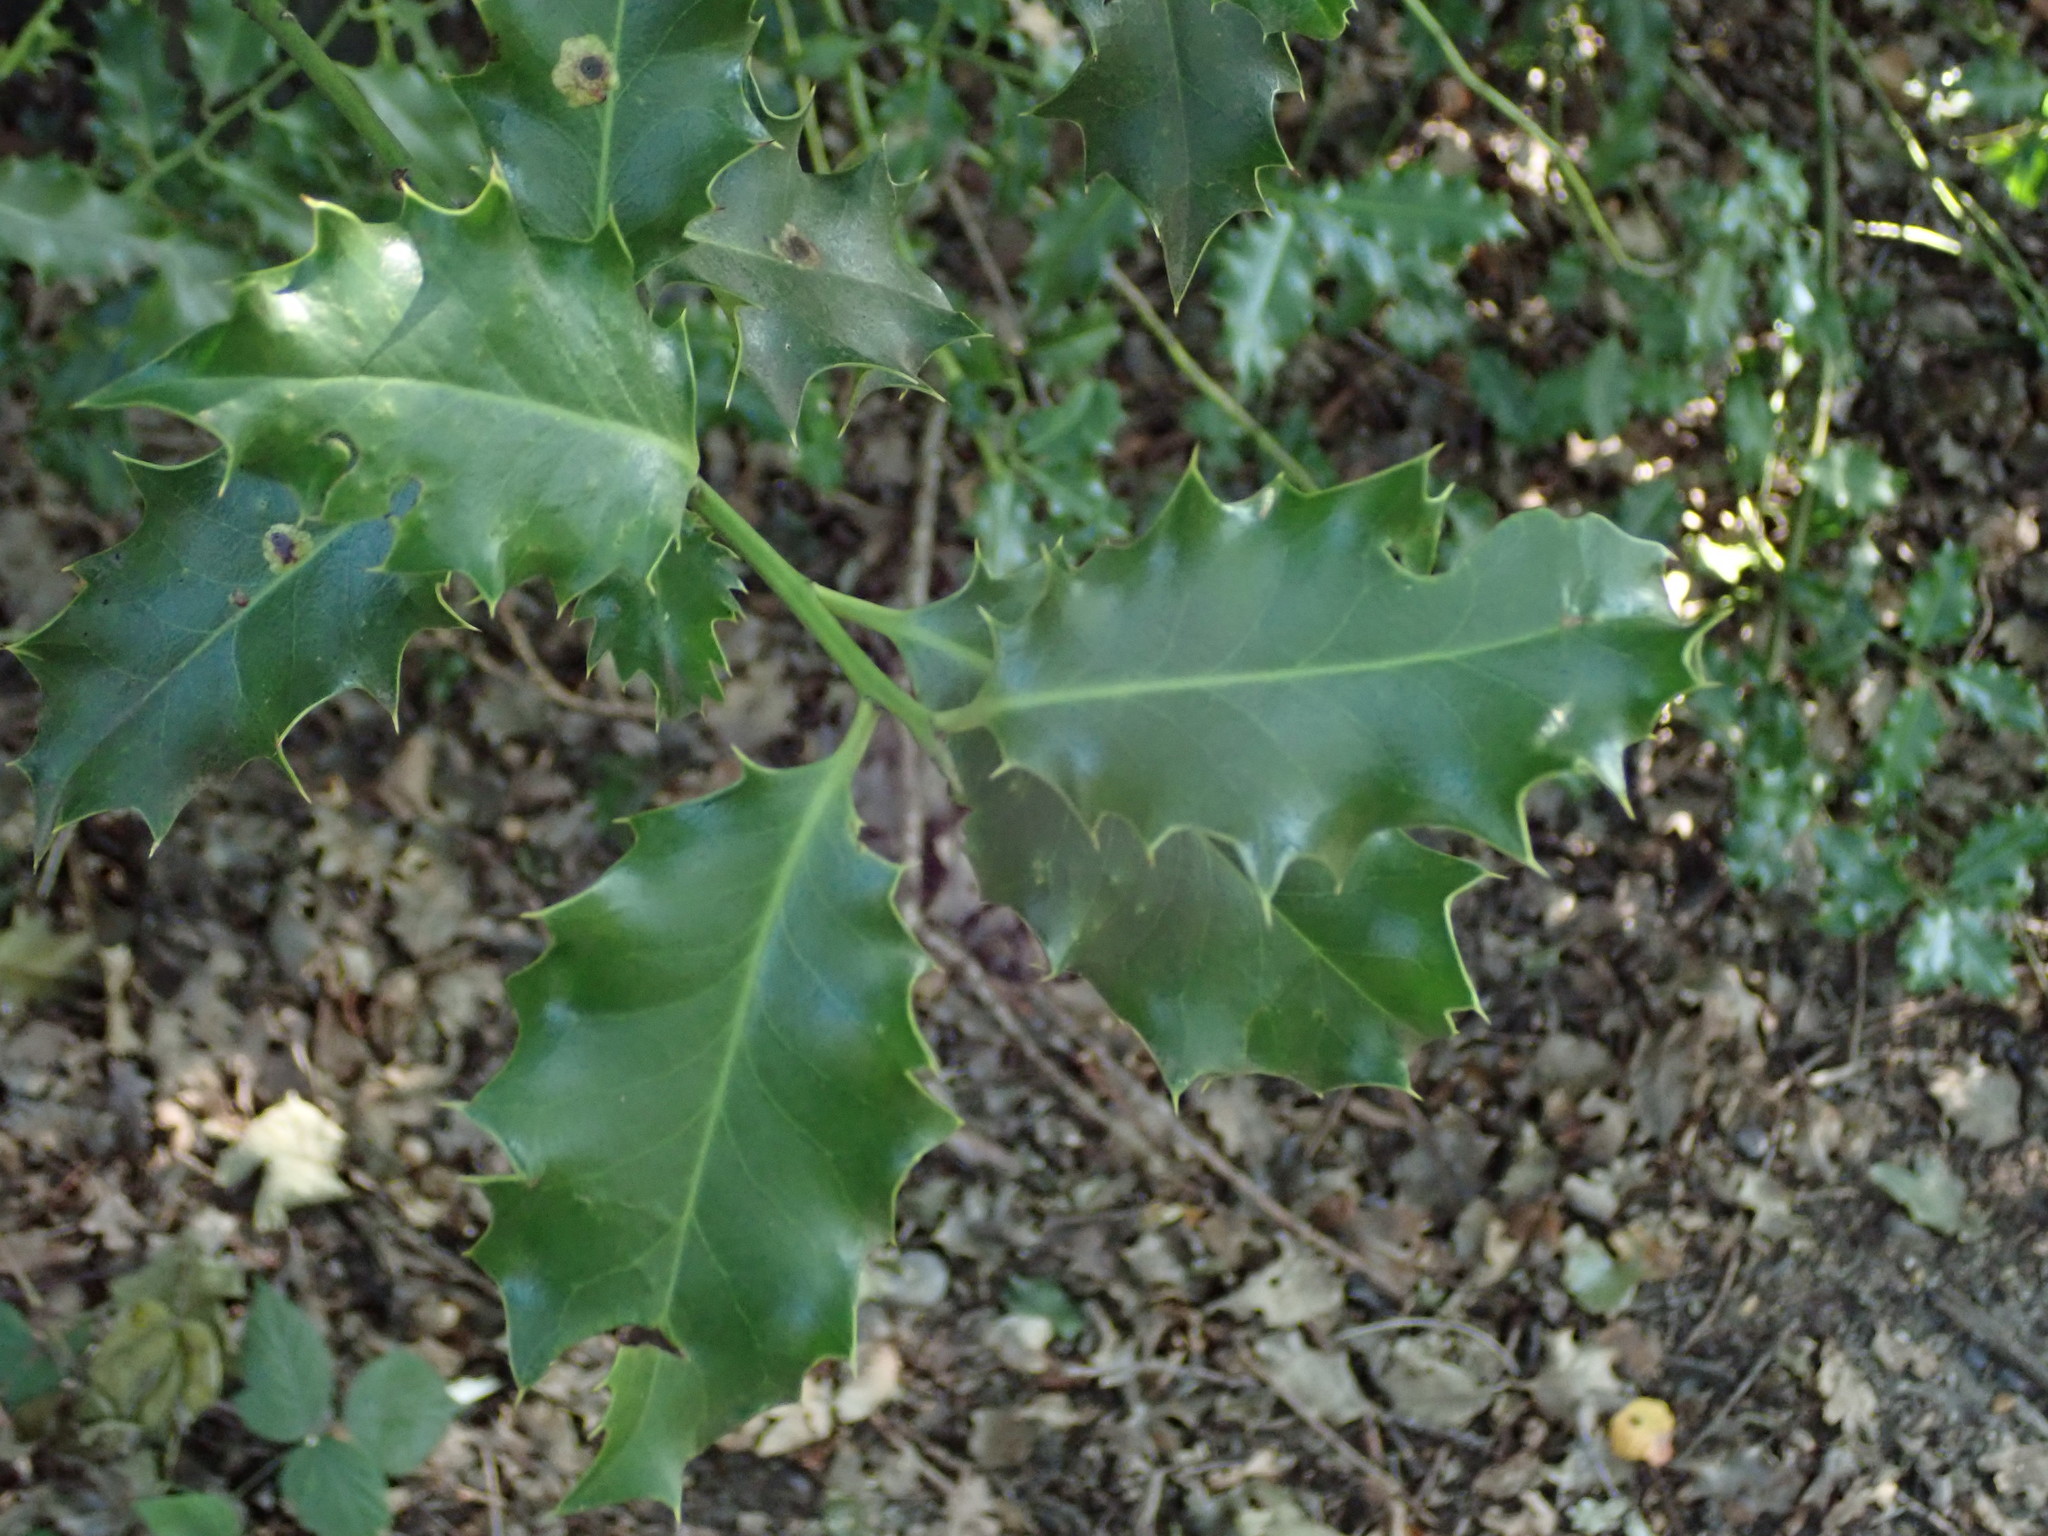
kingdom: Plantae
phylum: Tracheophyta
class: Magnoliopsida
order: Aquifoliales
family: Aquifoliaceae
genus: Ilex
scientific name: Ilex aquifolium
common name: English holly
